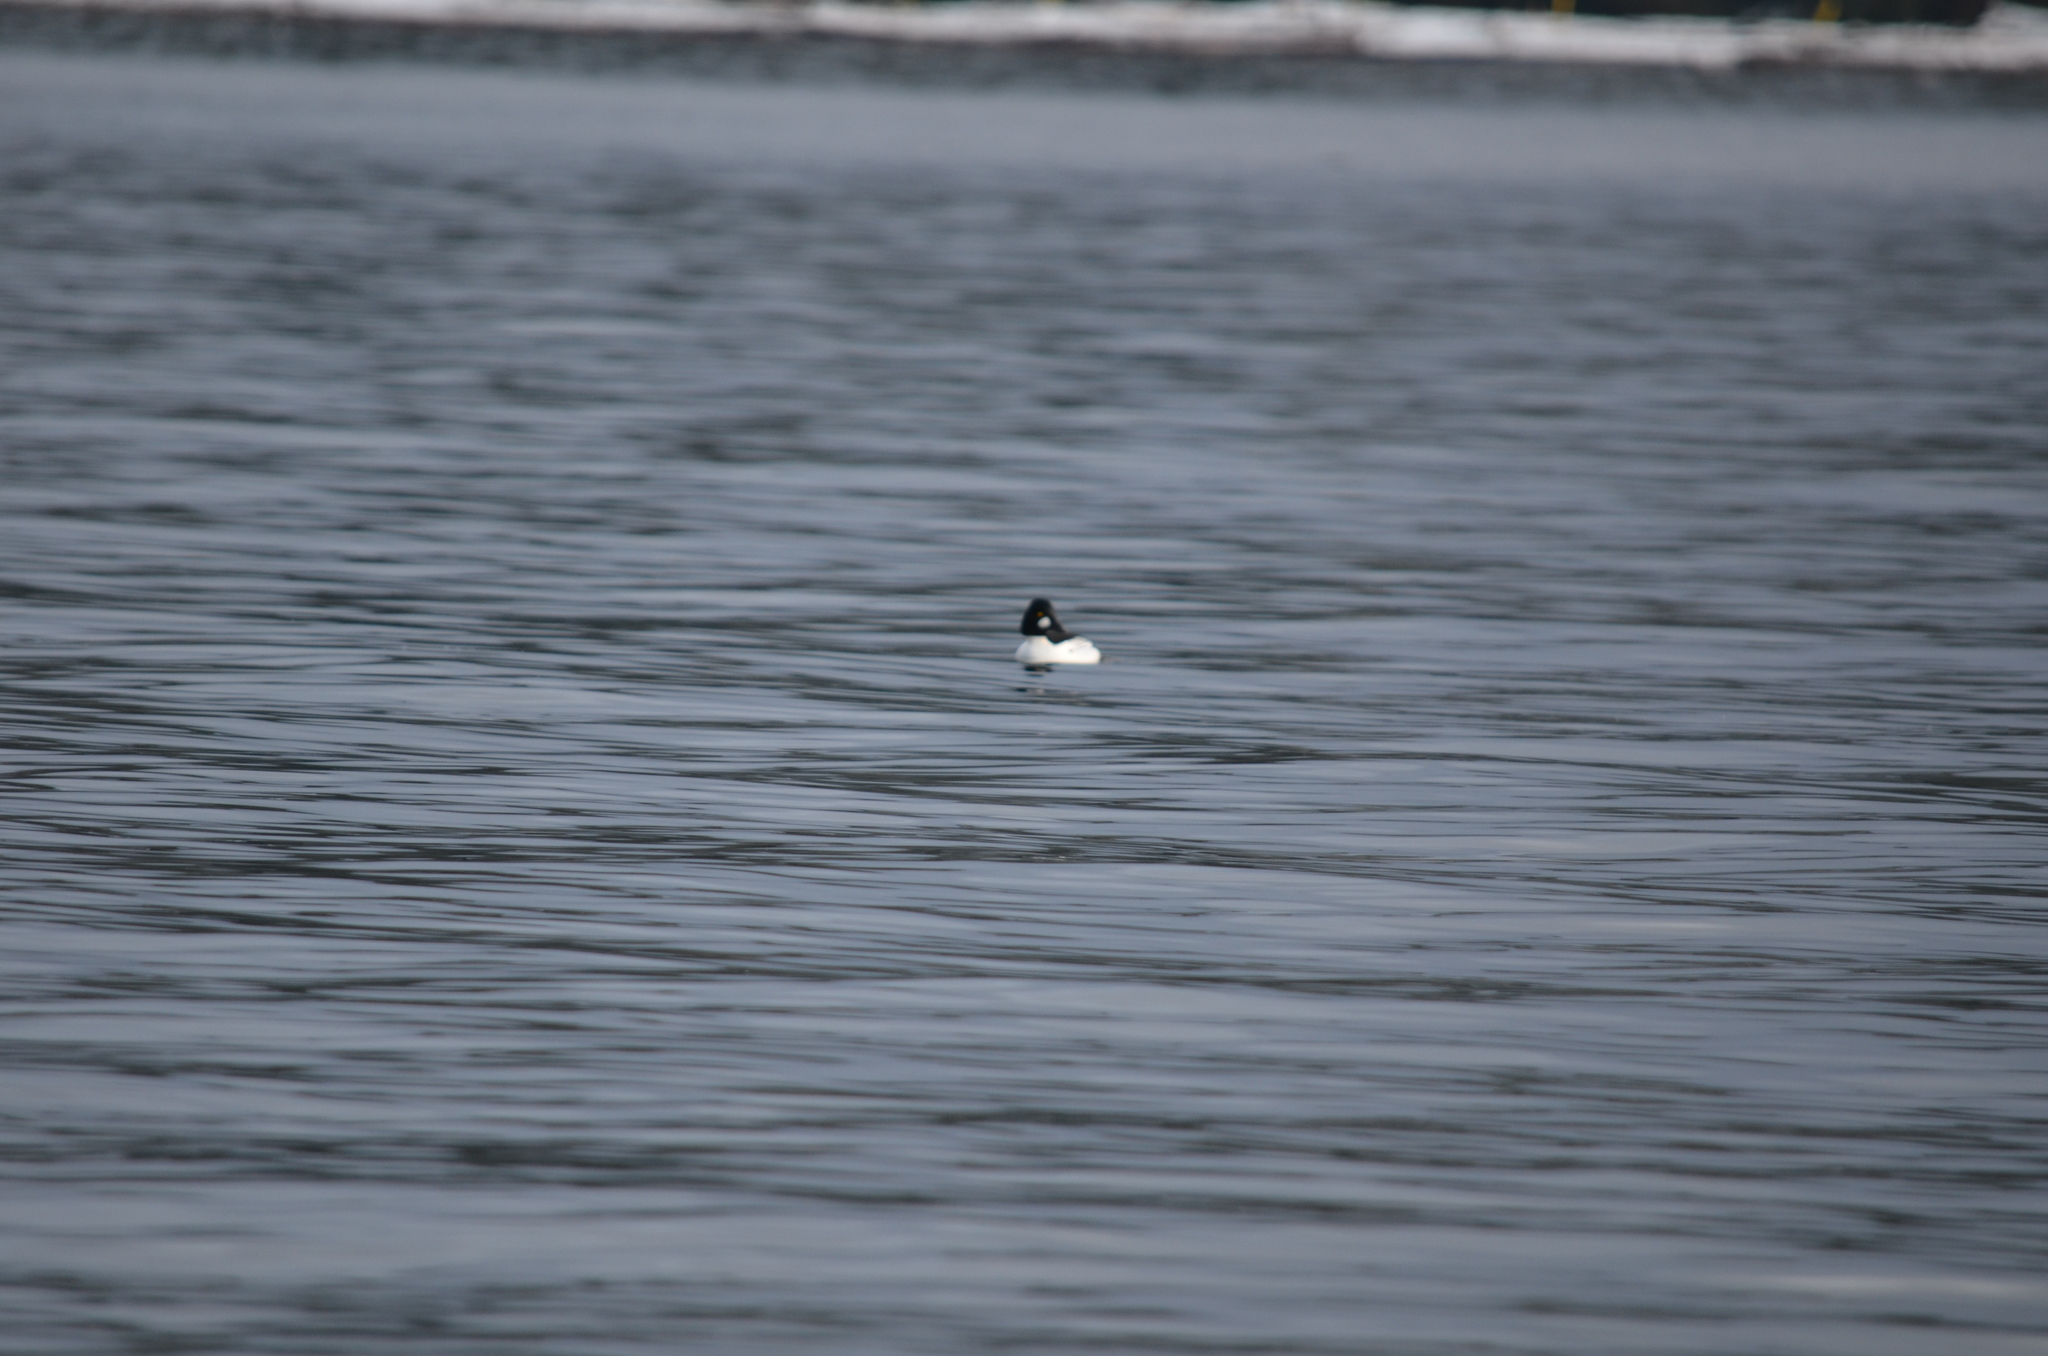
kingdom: Animalia
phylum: Chordata
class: Aves
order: Anseriformes
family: Anatidae
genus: Bucephala
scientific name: Bucephala clangula
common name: Common goldeneye
